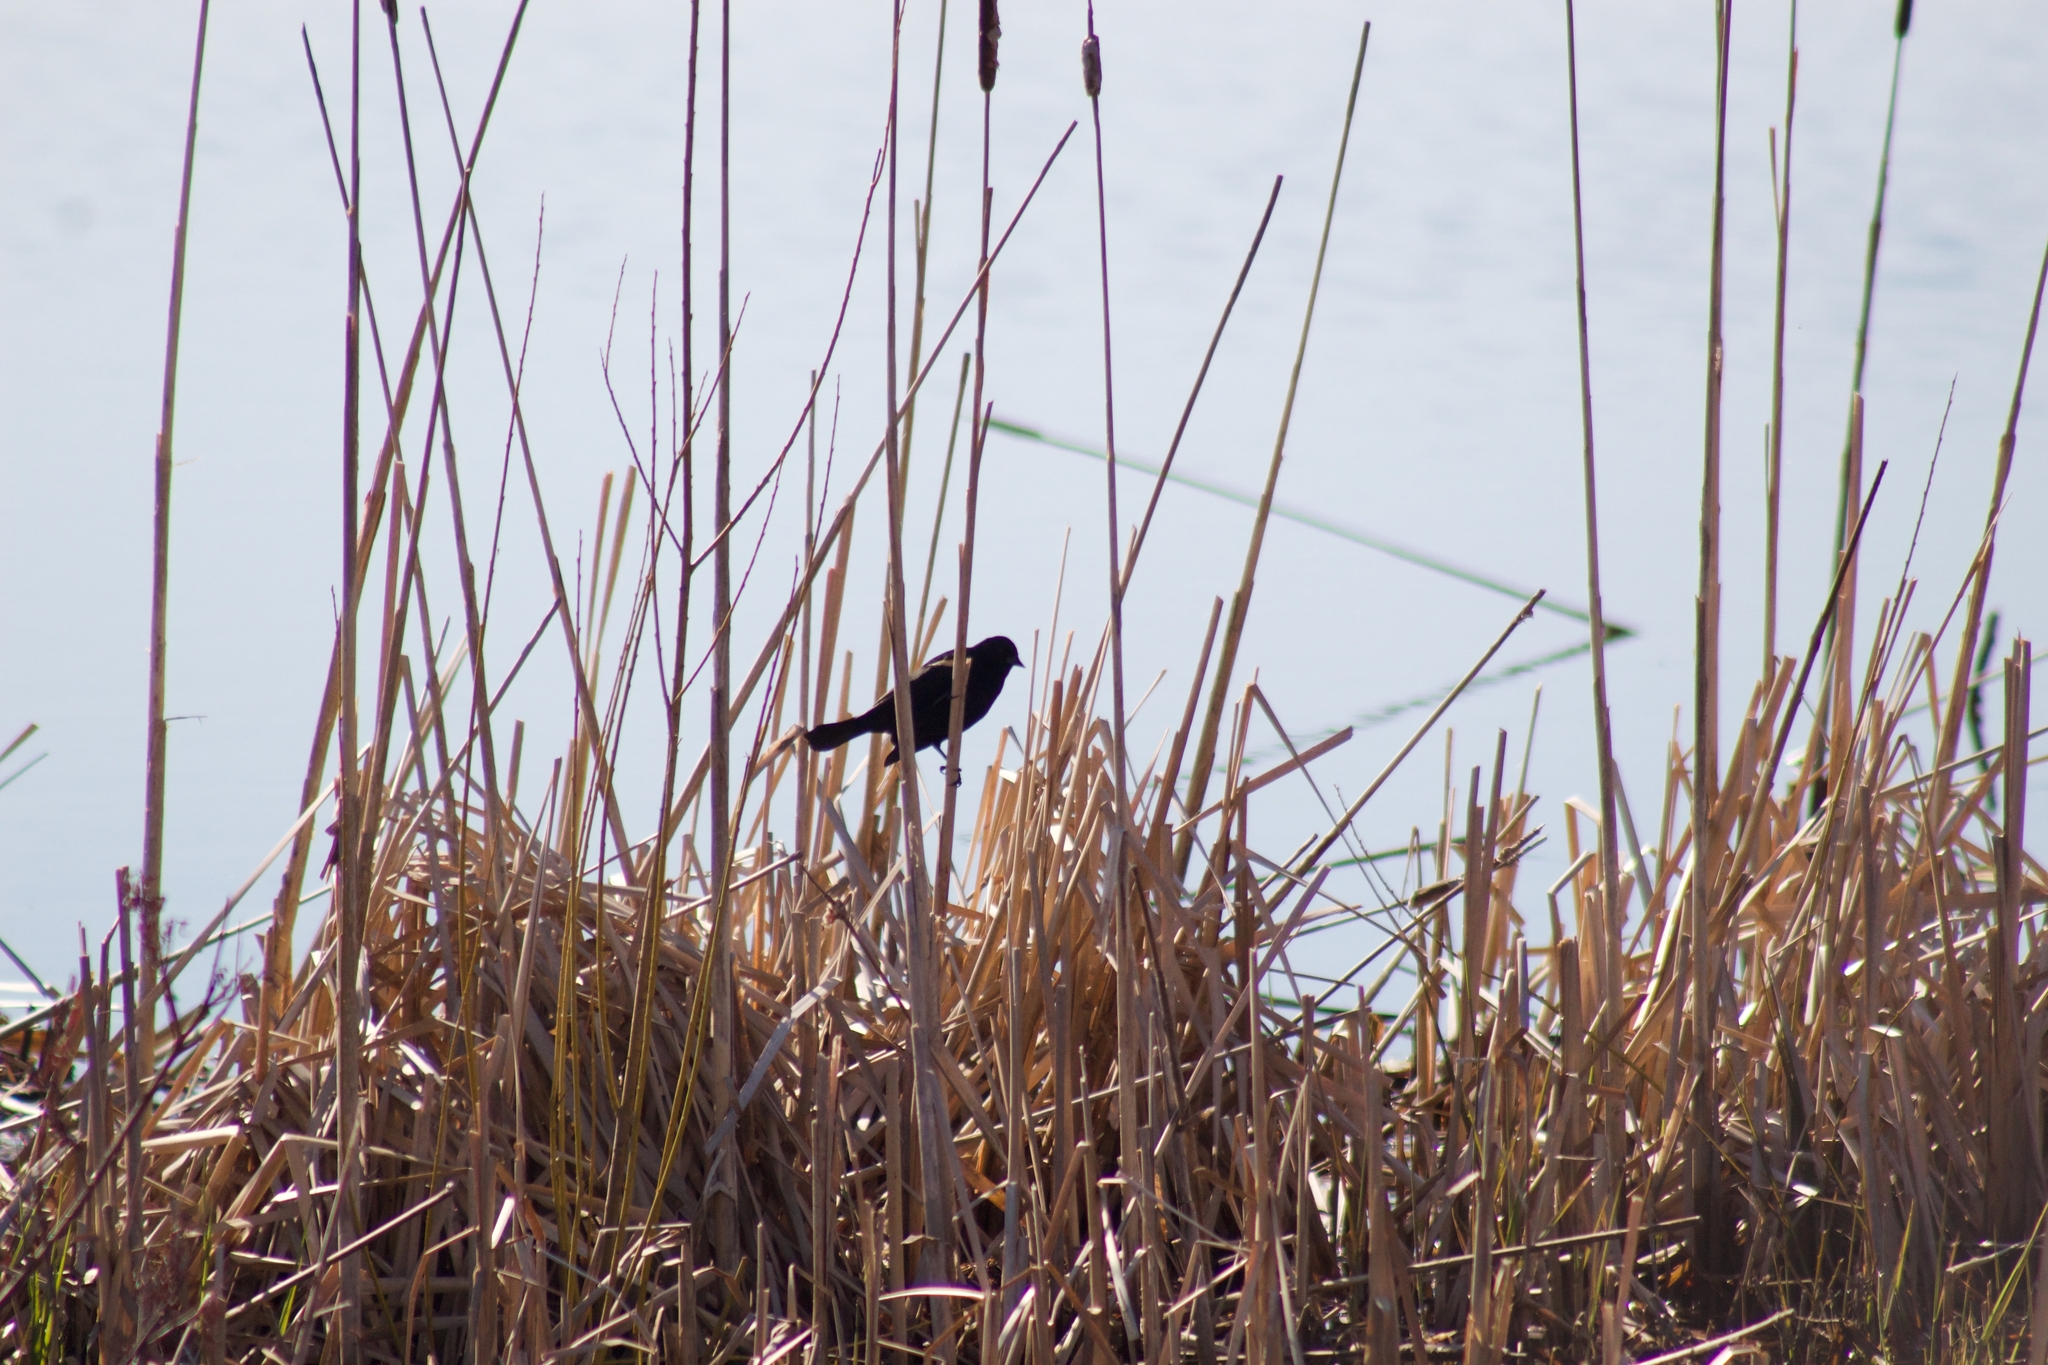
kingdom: Animalia
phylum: Chordata
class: Aves
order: Passeriformes
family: Icteridae
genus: Agelaius
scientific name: Agelaius phoeniceus
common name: Red-winged blackbird
